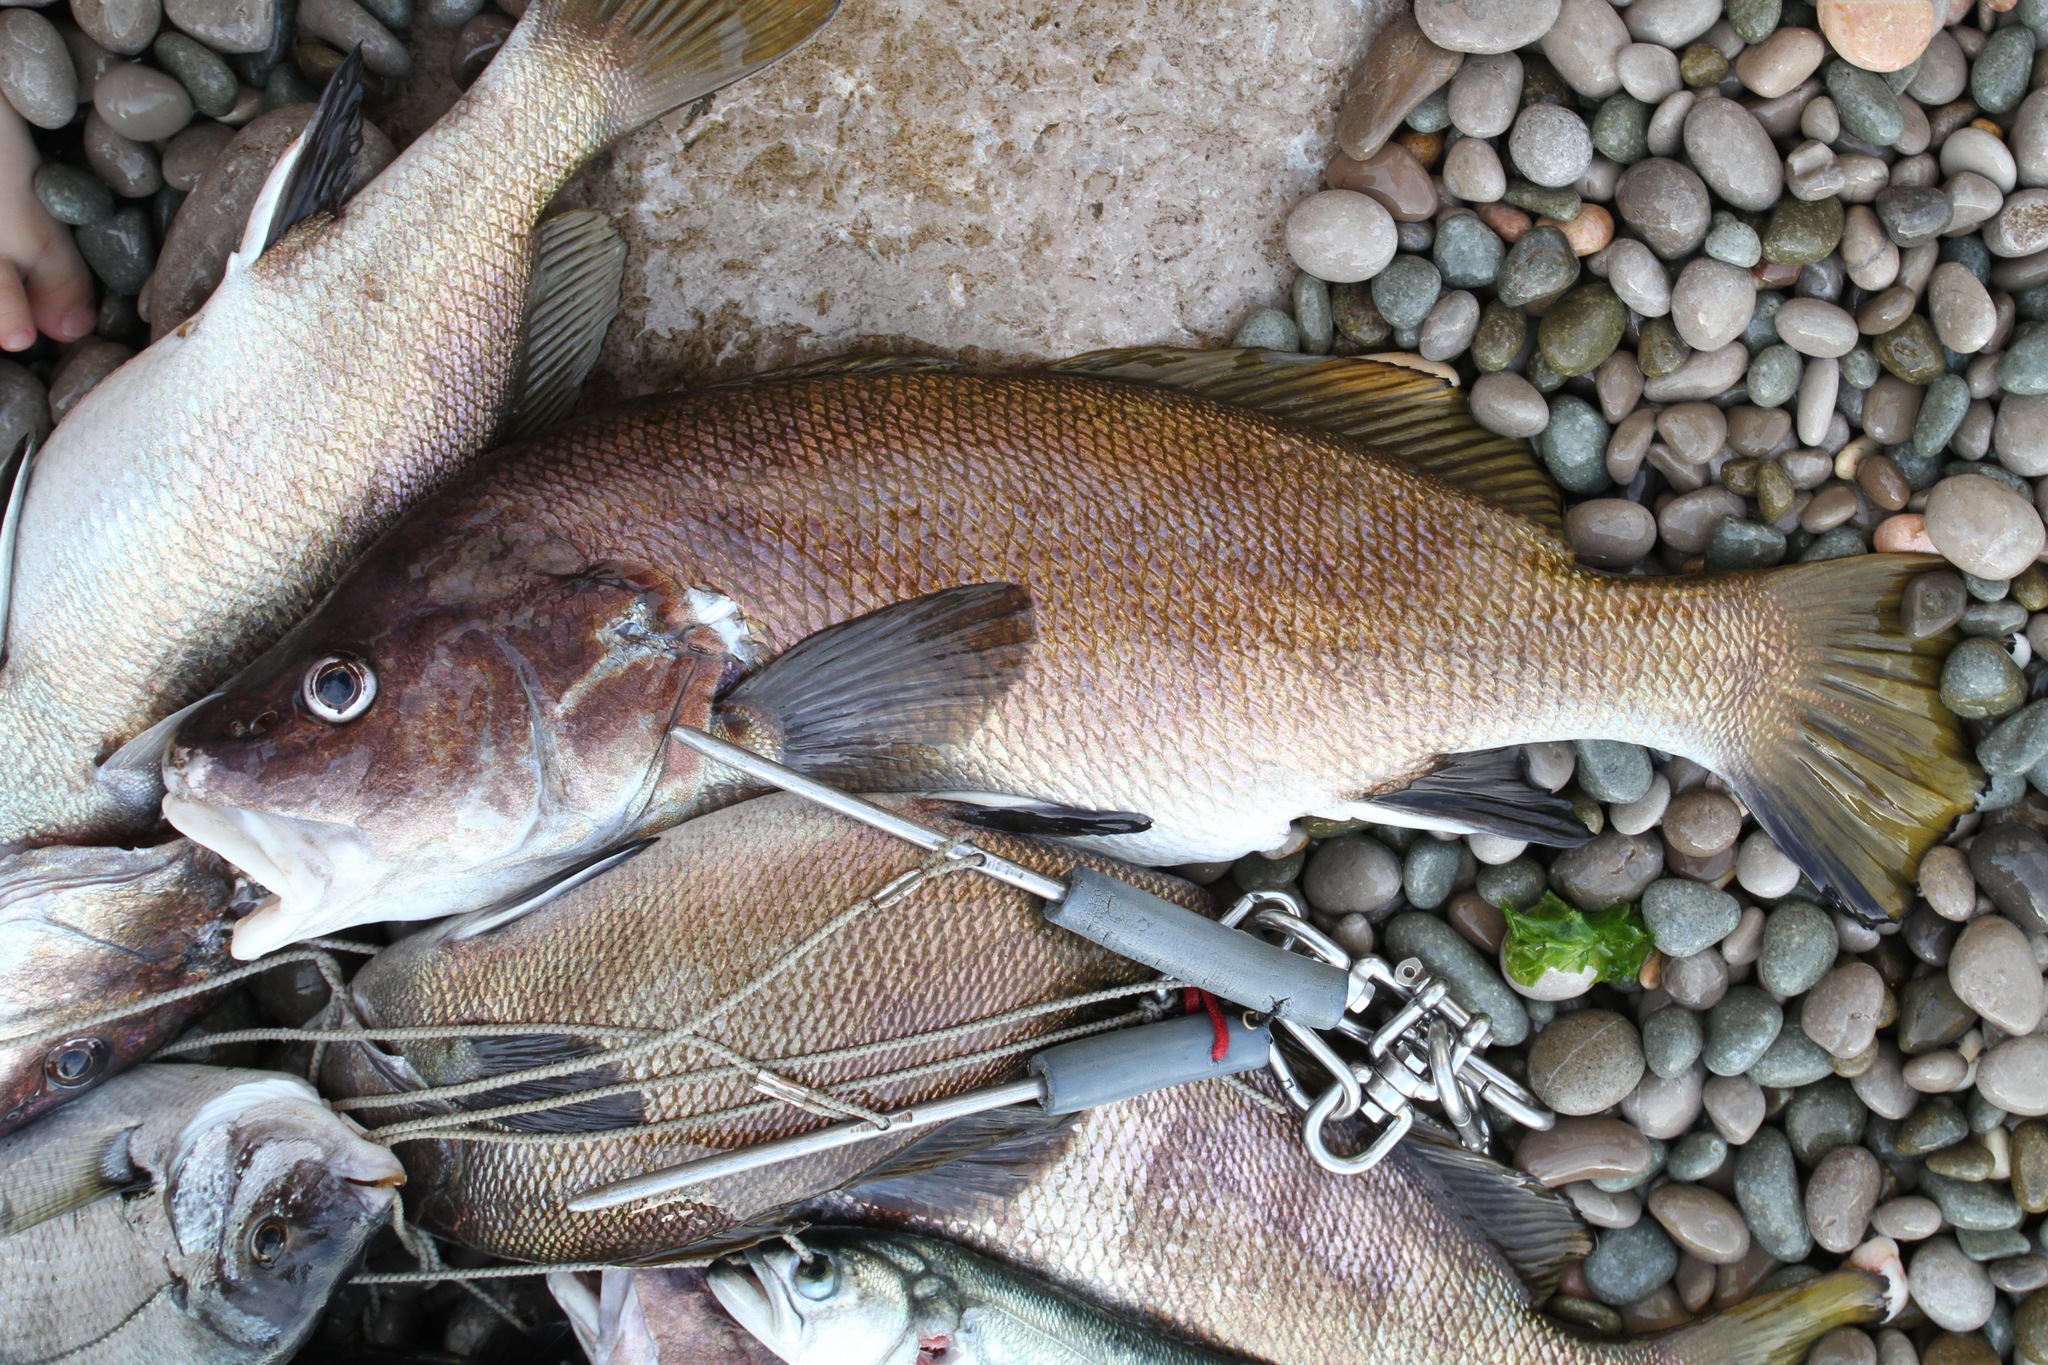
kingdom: Animalia
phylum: Chordata
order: Perciformes
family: Sciaenidae
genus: Sciaena
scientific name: Sciaena umbra
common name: Brown meagre
